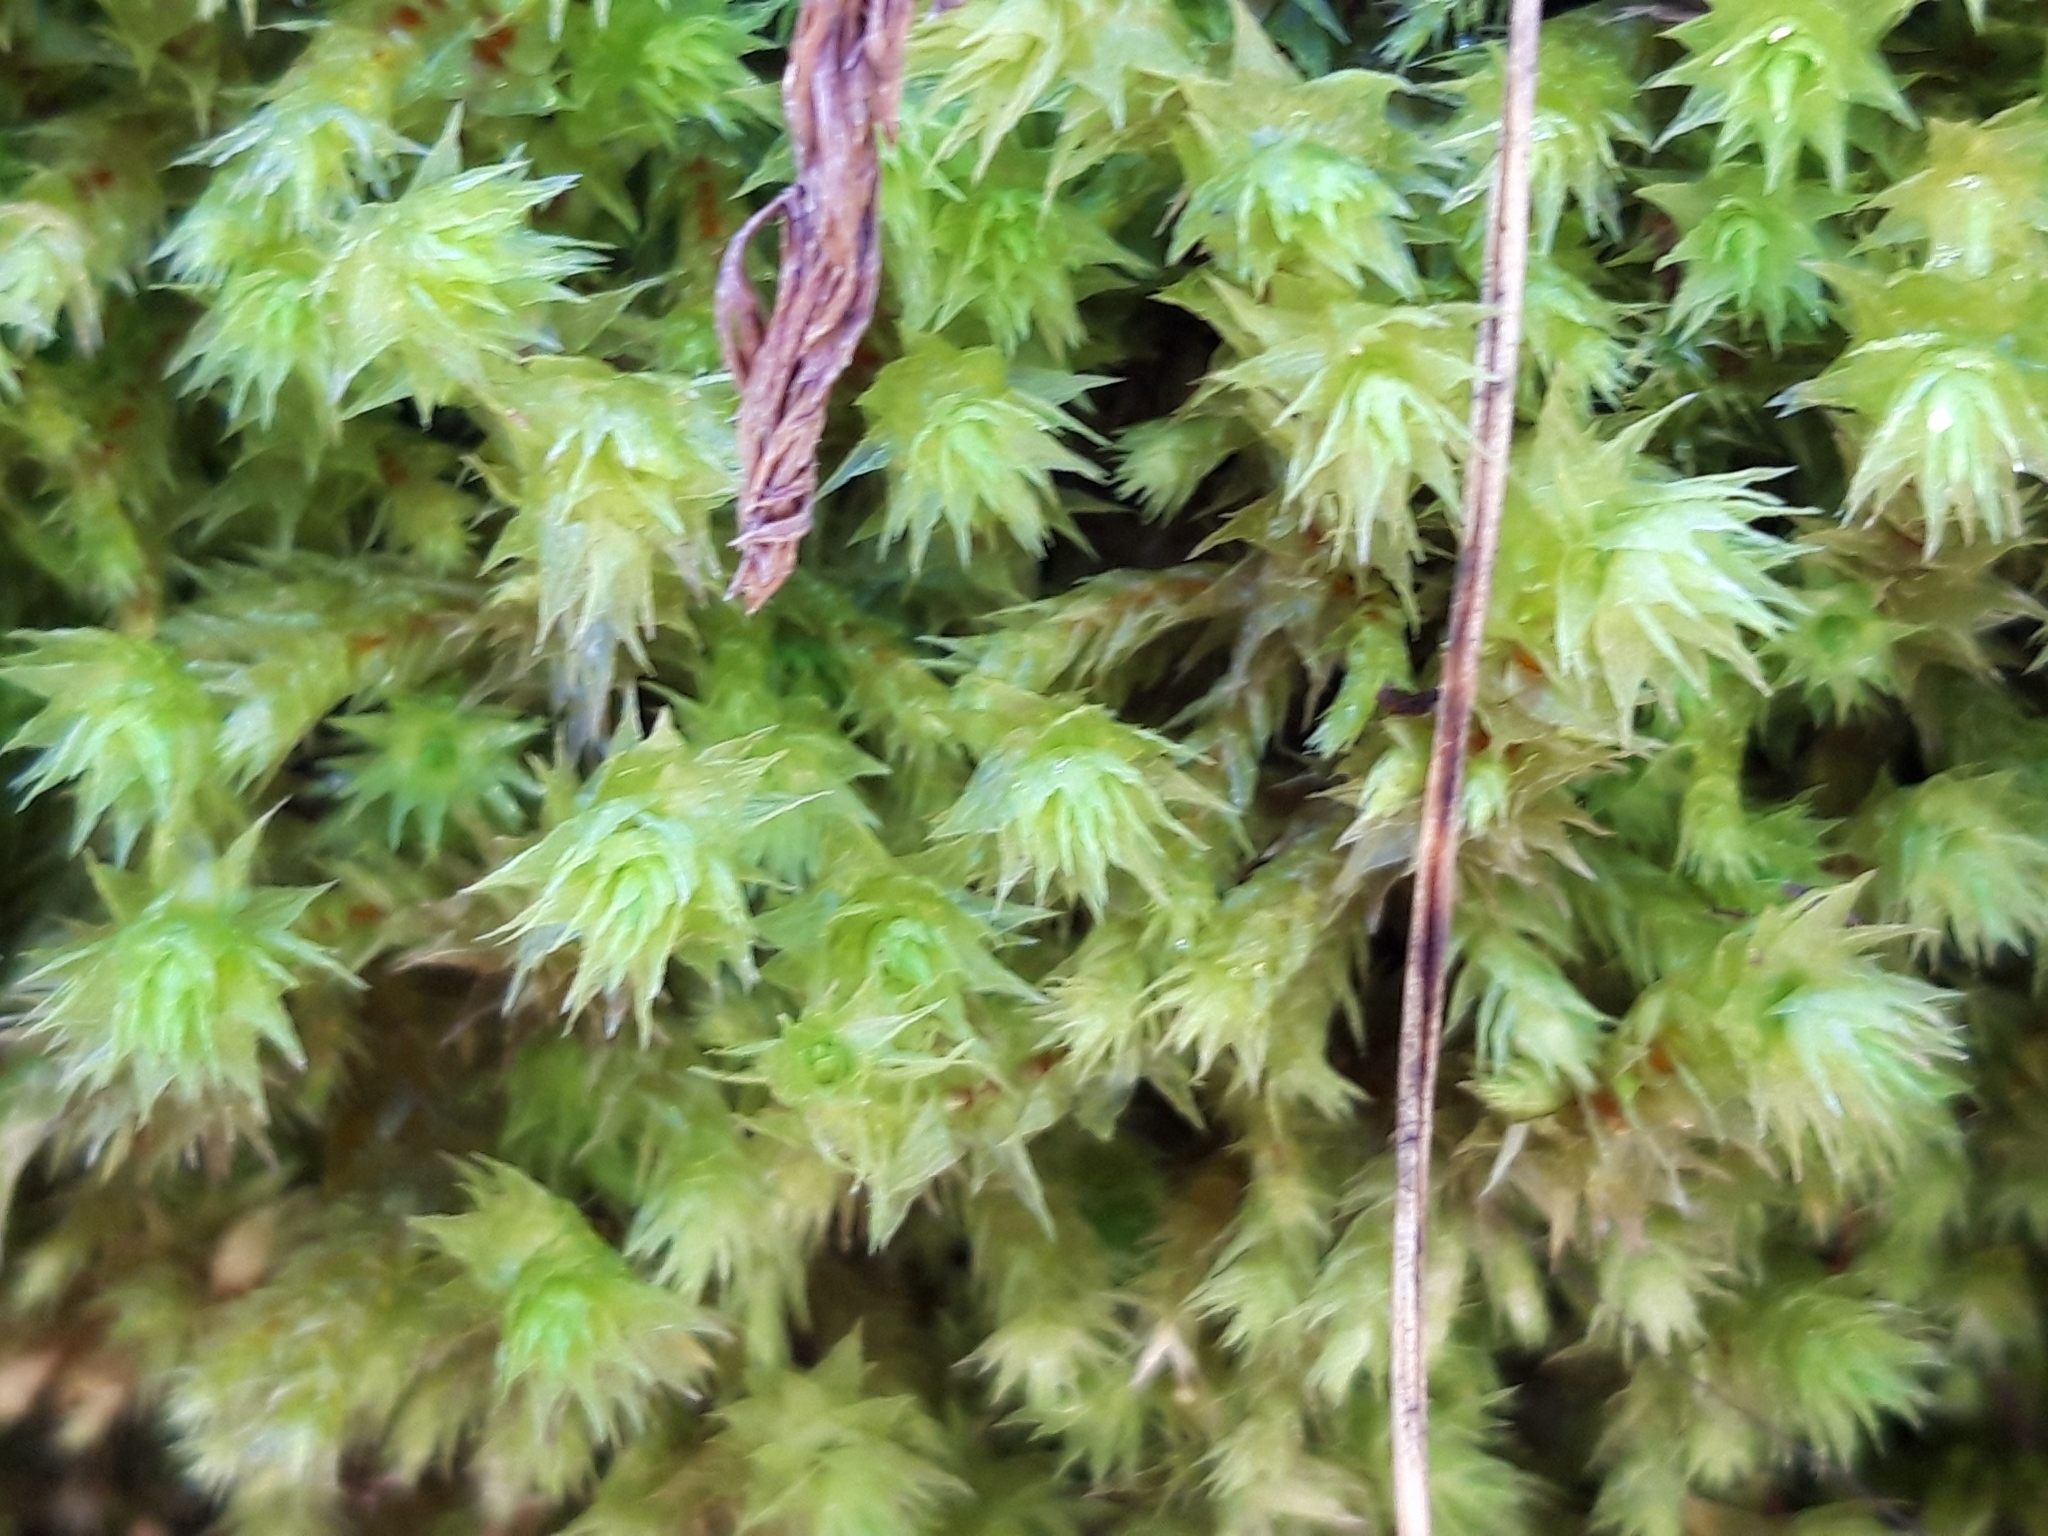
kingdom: Plantae
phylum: Bryophyta
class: Bryopsida
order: Hypnales
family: Hylocomiaceae
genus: Hylocomiadelphus
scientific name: Hylocomiadelphus triquetrus
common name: Rough goose neck moss
